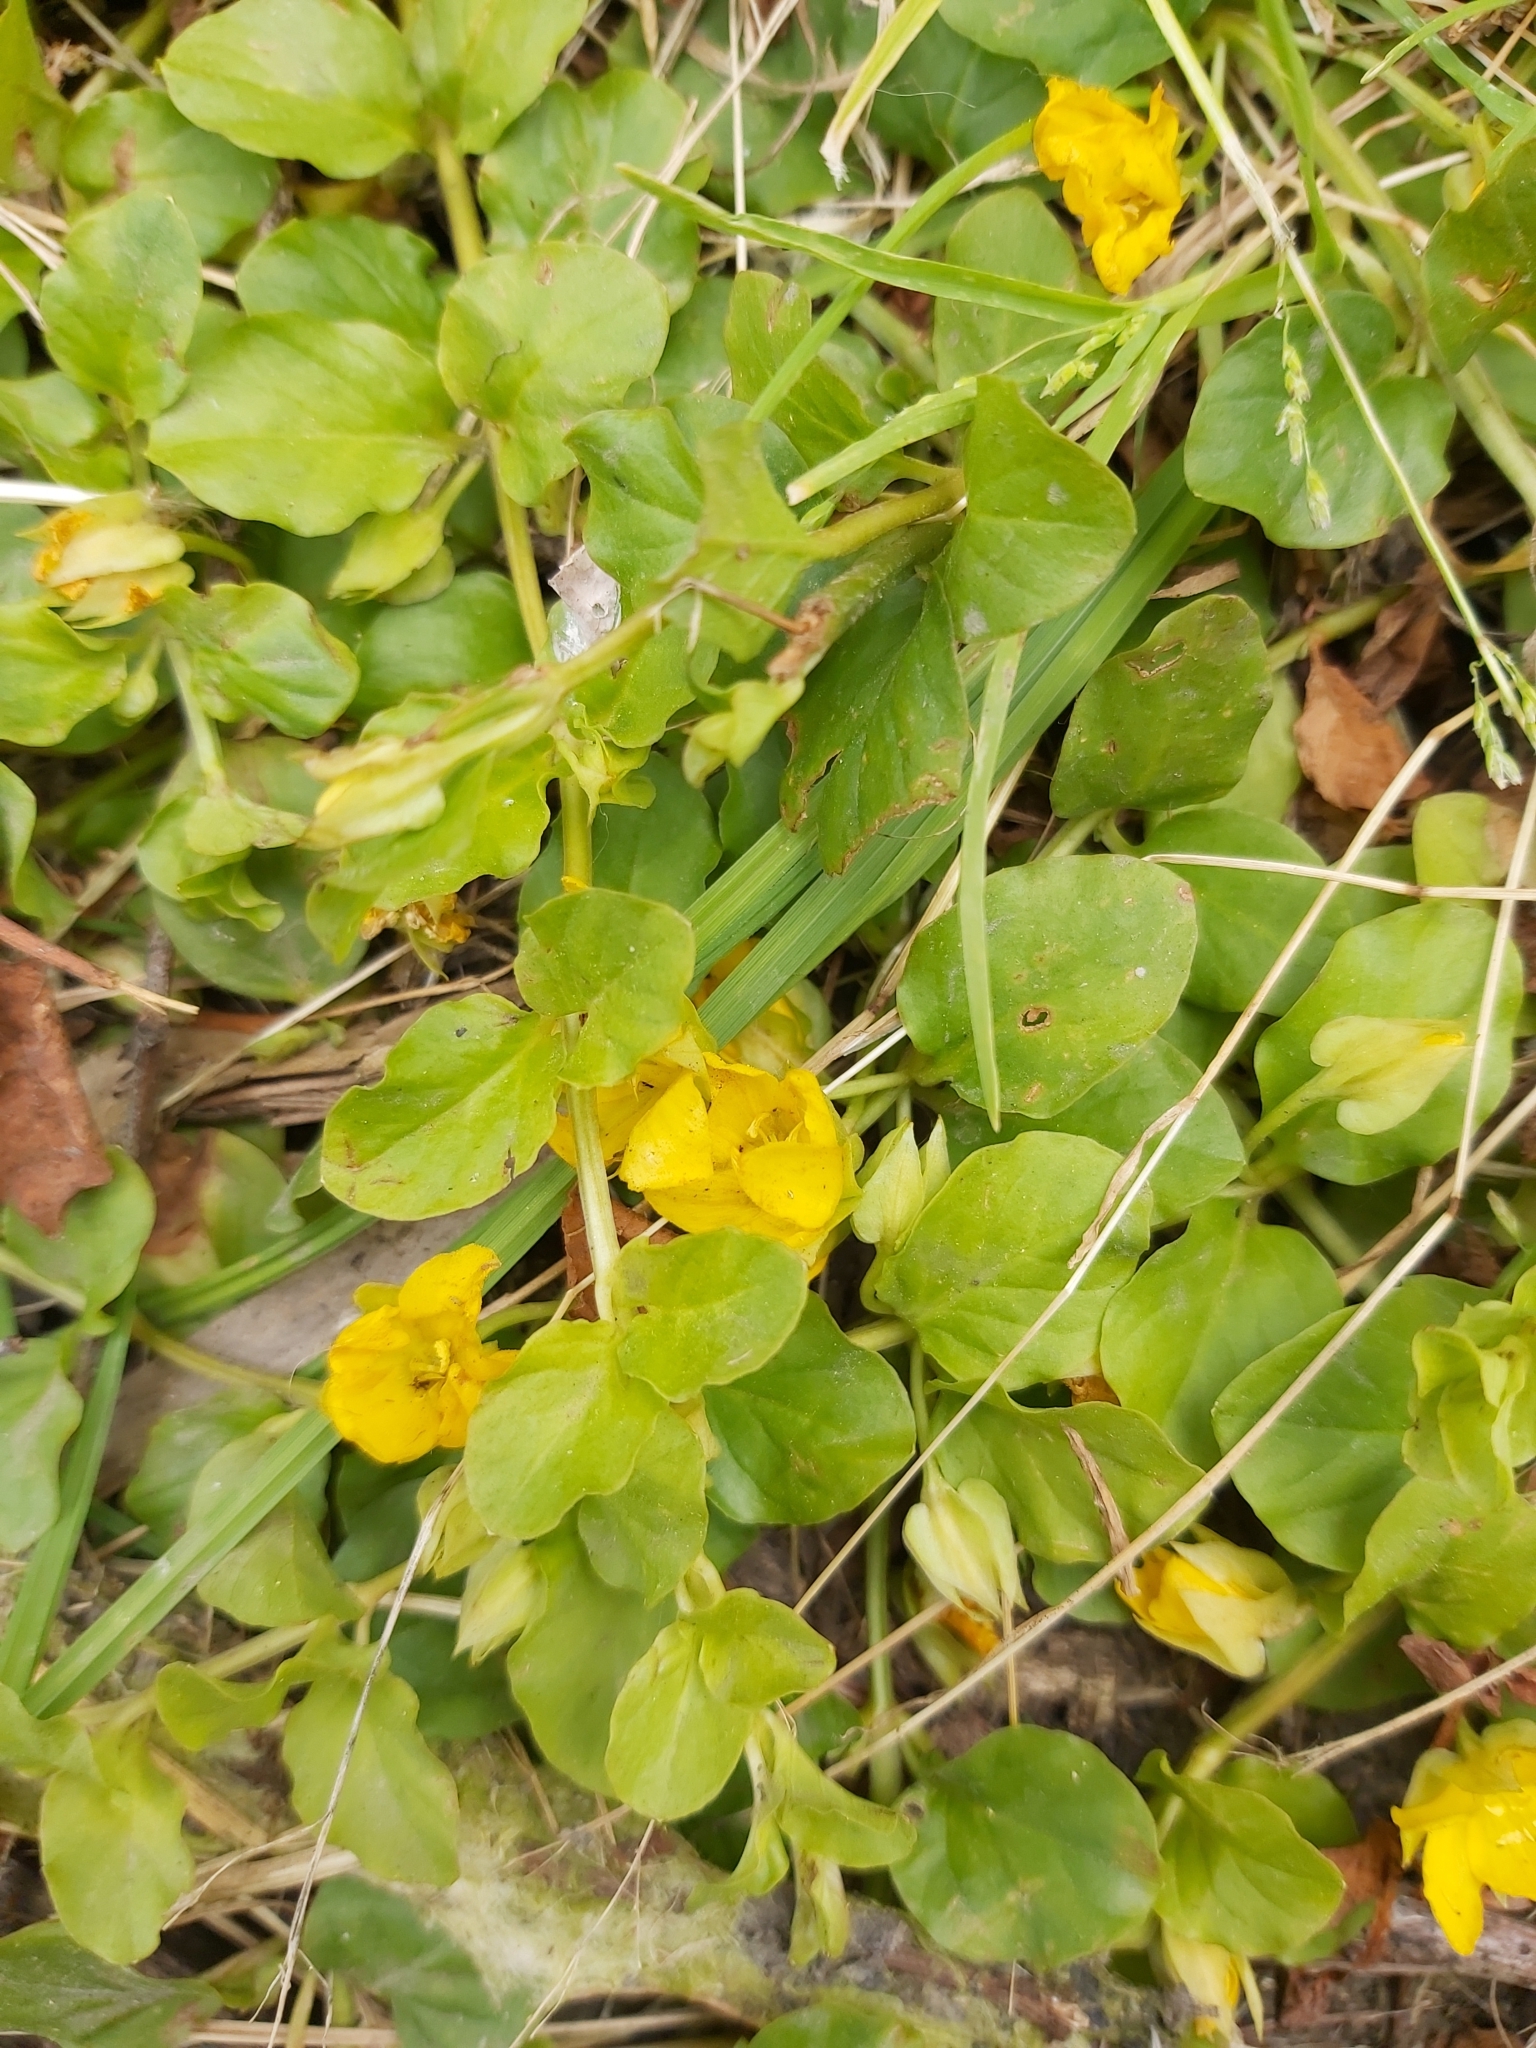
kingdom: Plantae
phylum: Tracheophyta
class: Magnoliopsida
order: Ericales
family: Primulaceae
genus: Lysimachia
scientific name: Lysimachia nummularia
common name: Moneywort
